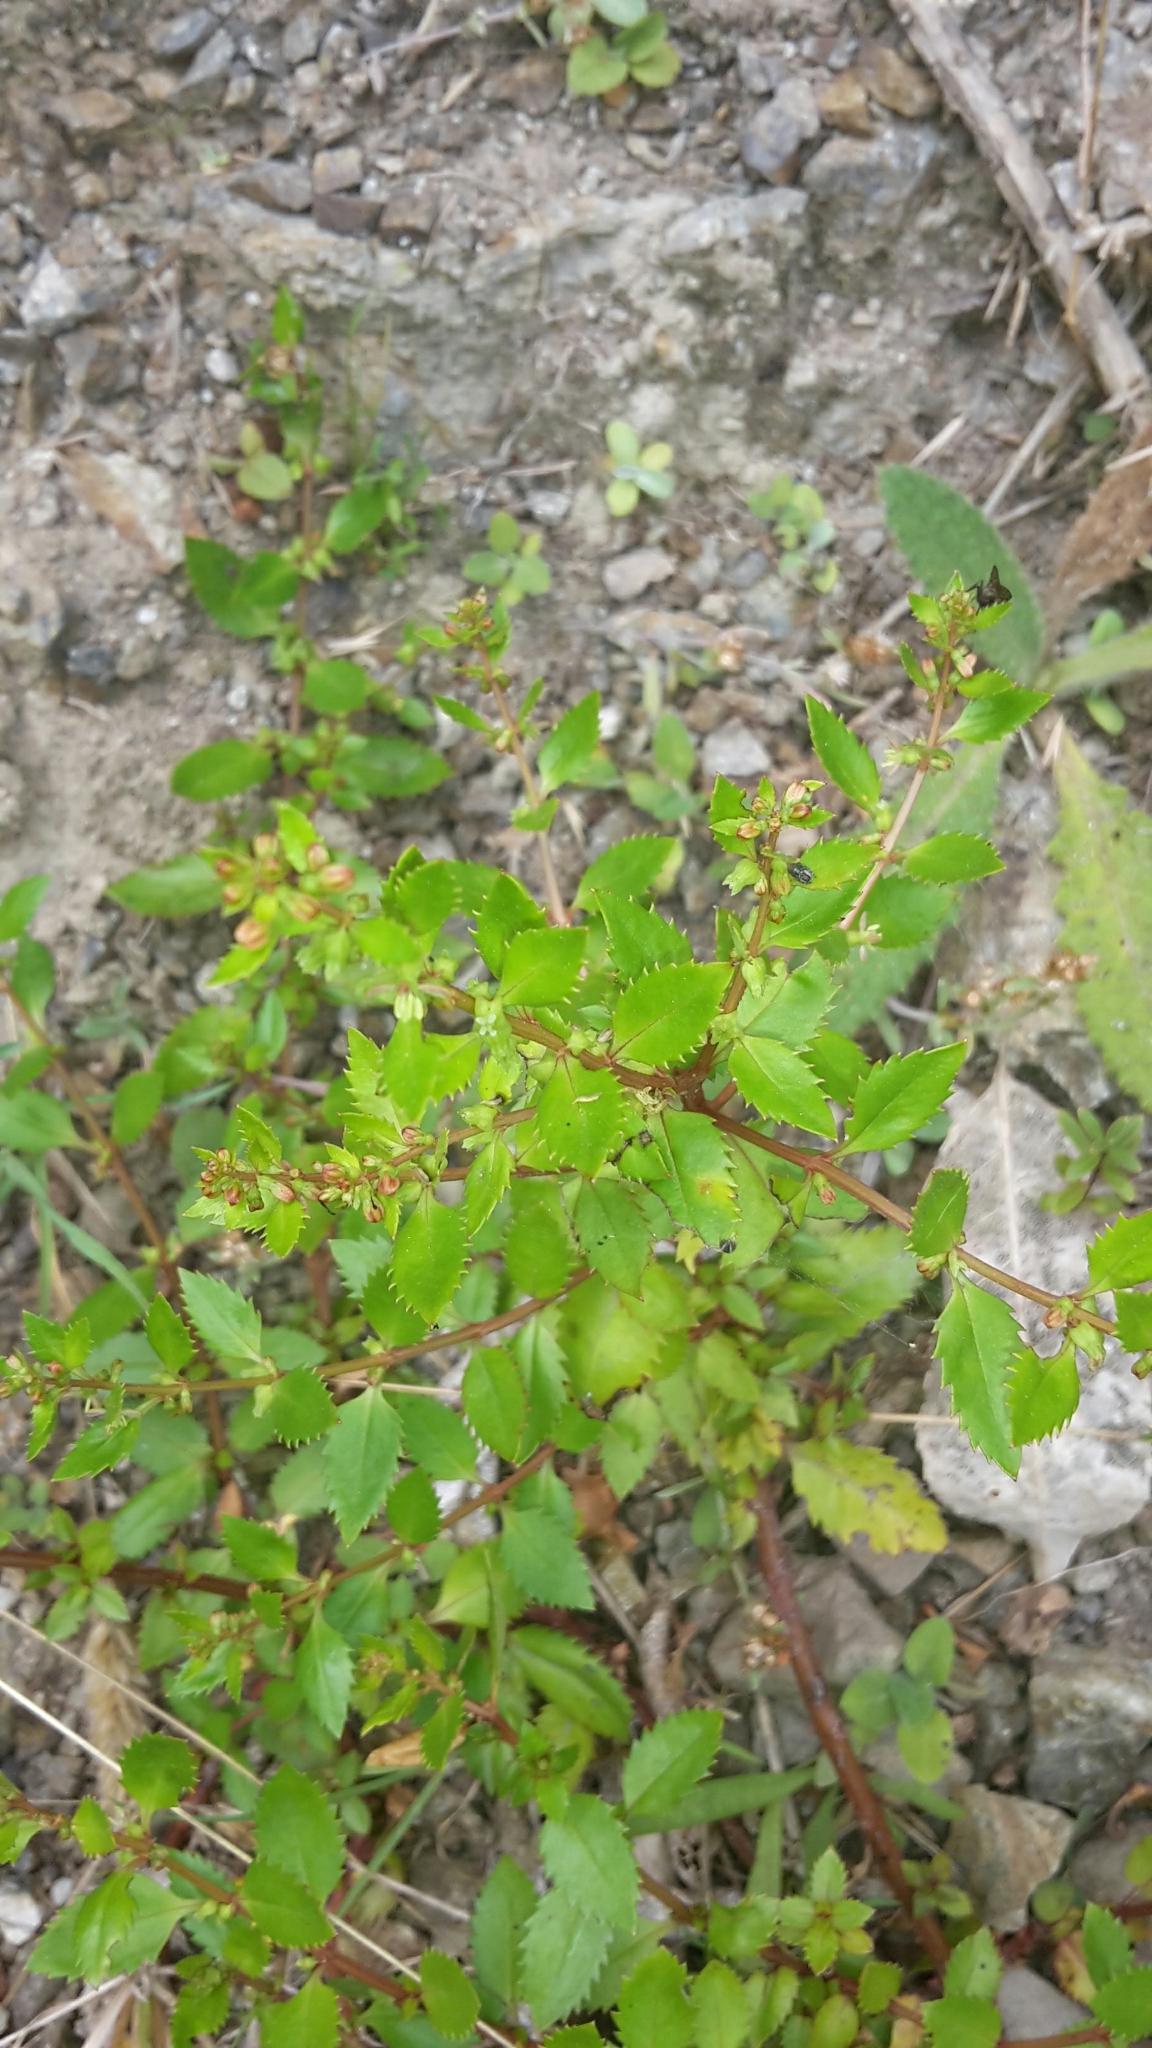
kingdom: Plantae
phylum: Tracheophyta
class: Magnoliopsida
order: Saxifragales
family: Haloragaceae
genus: Haloragis
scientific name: Haloragis erecta
